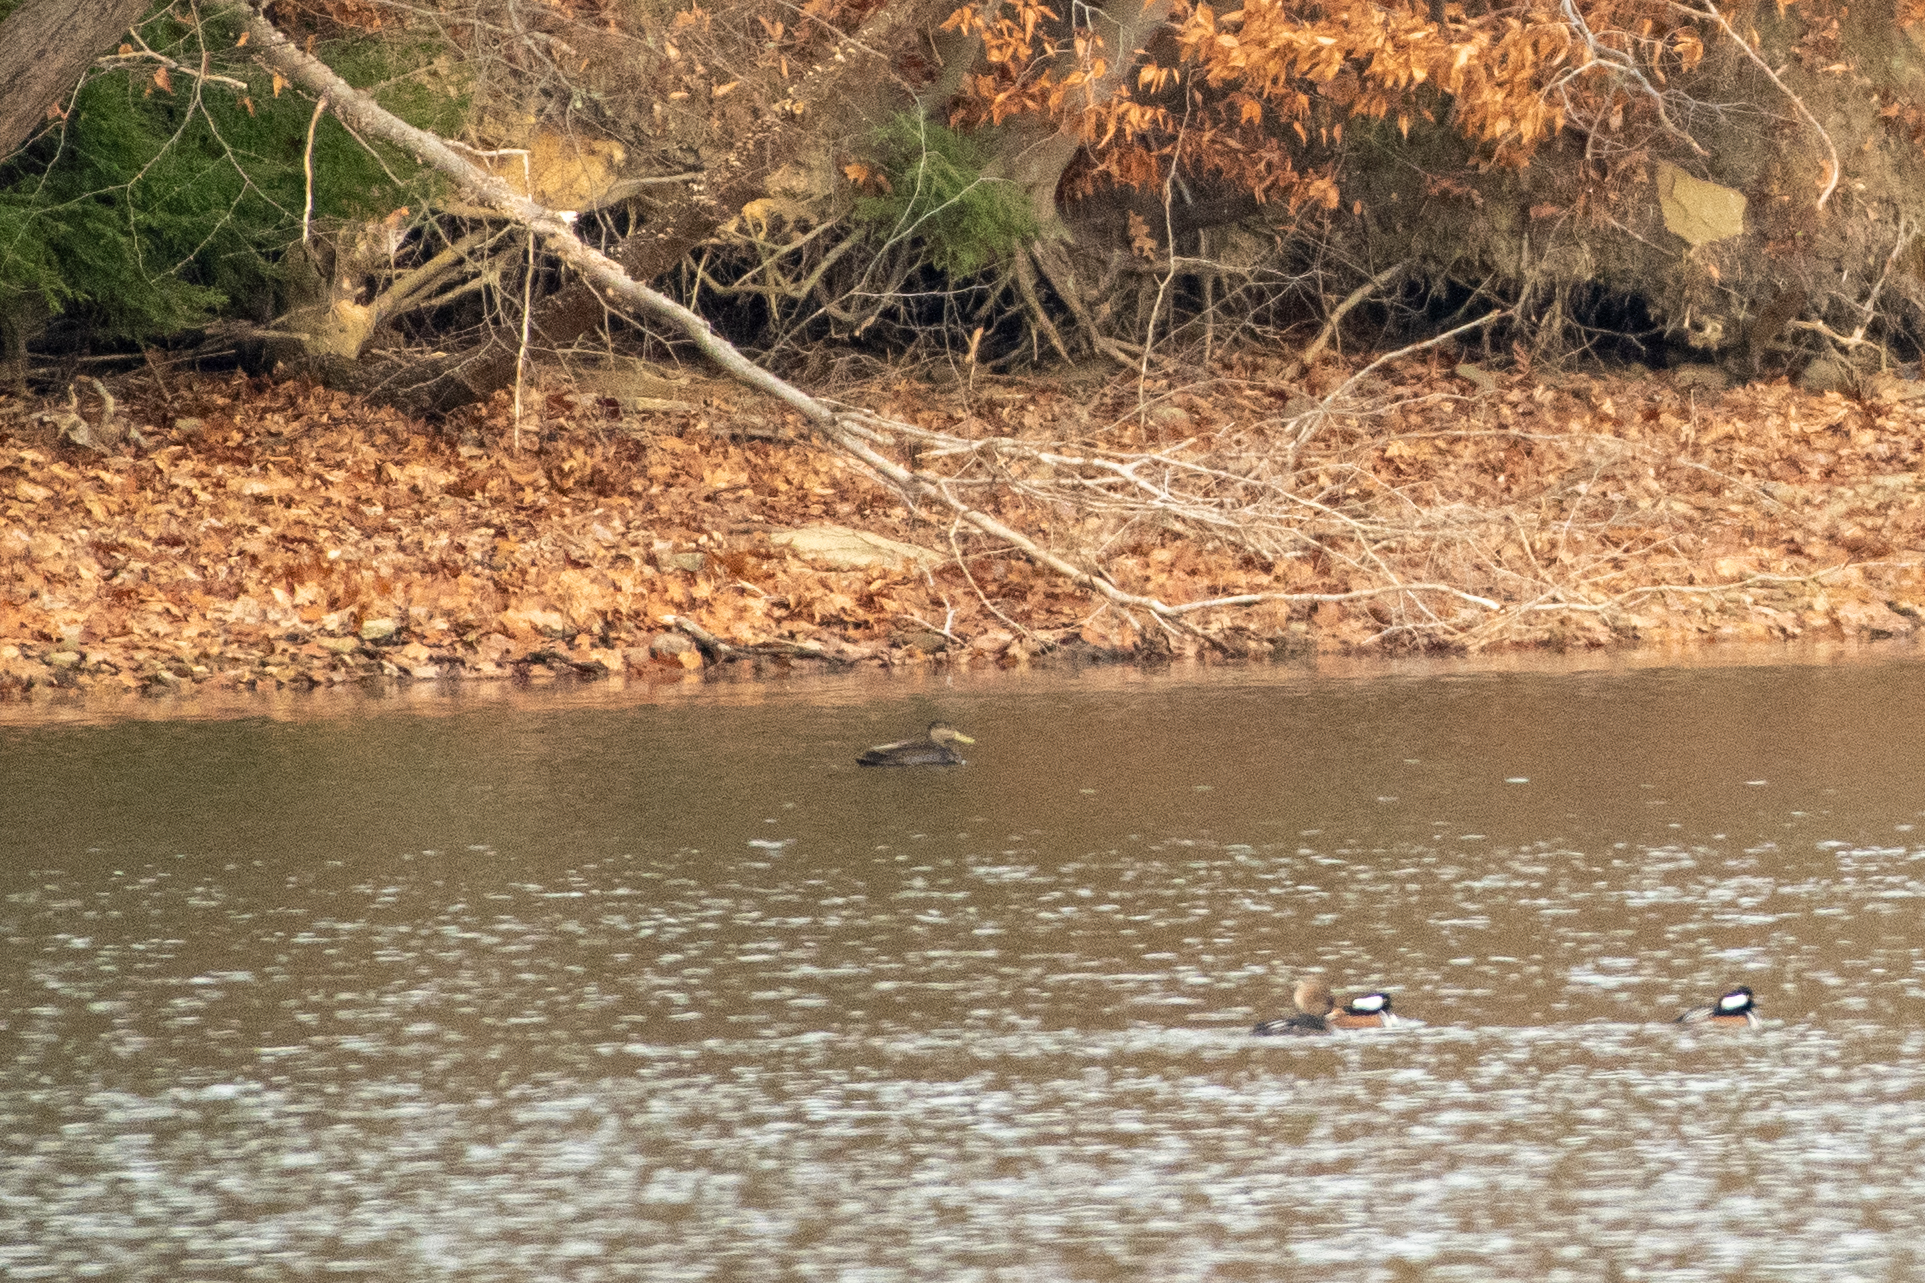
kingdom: Animalia
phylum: Chordata
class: Aves
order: Anseriformes
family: Anatidae
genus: Anas
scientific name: Anas rubripes
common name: American black duck
